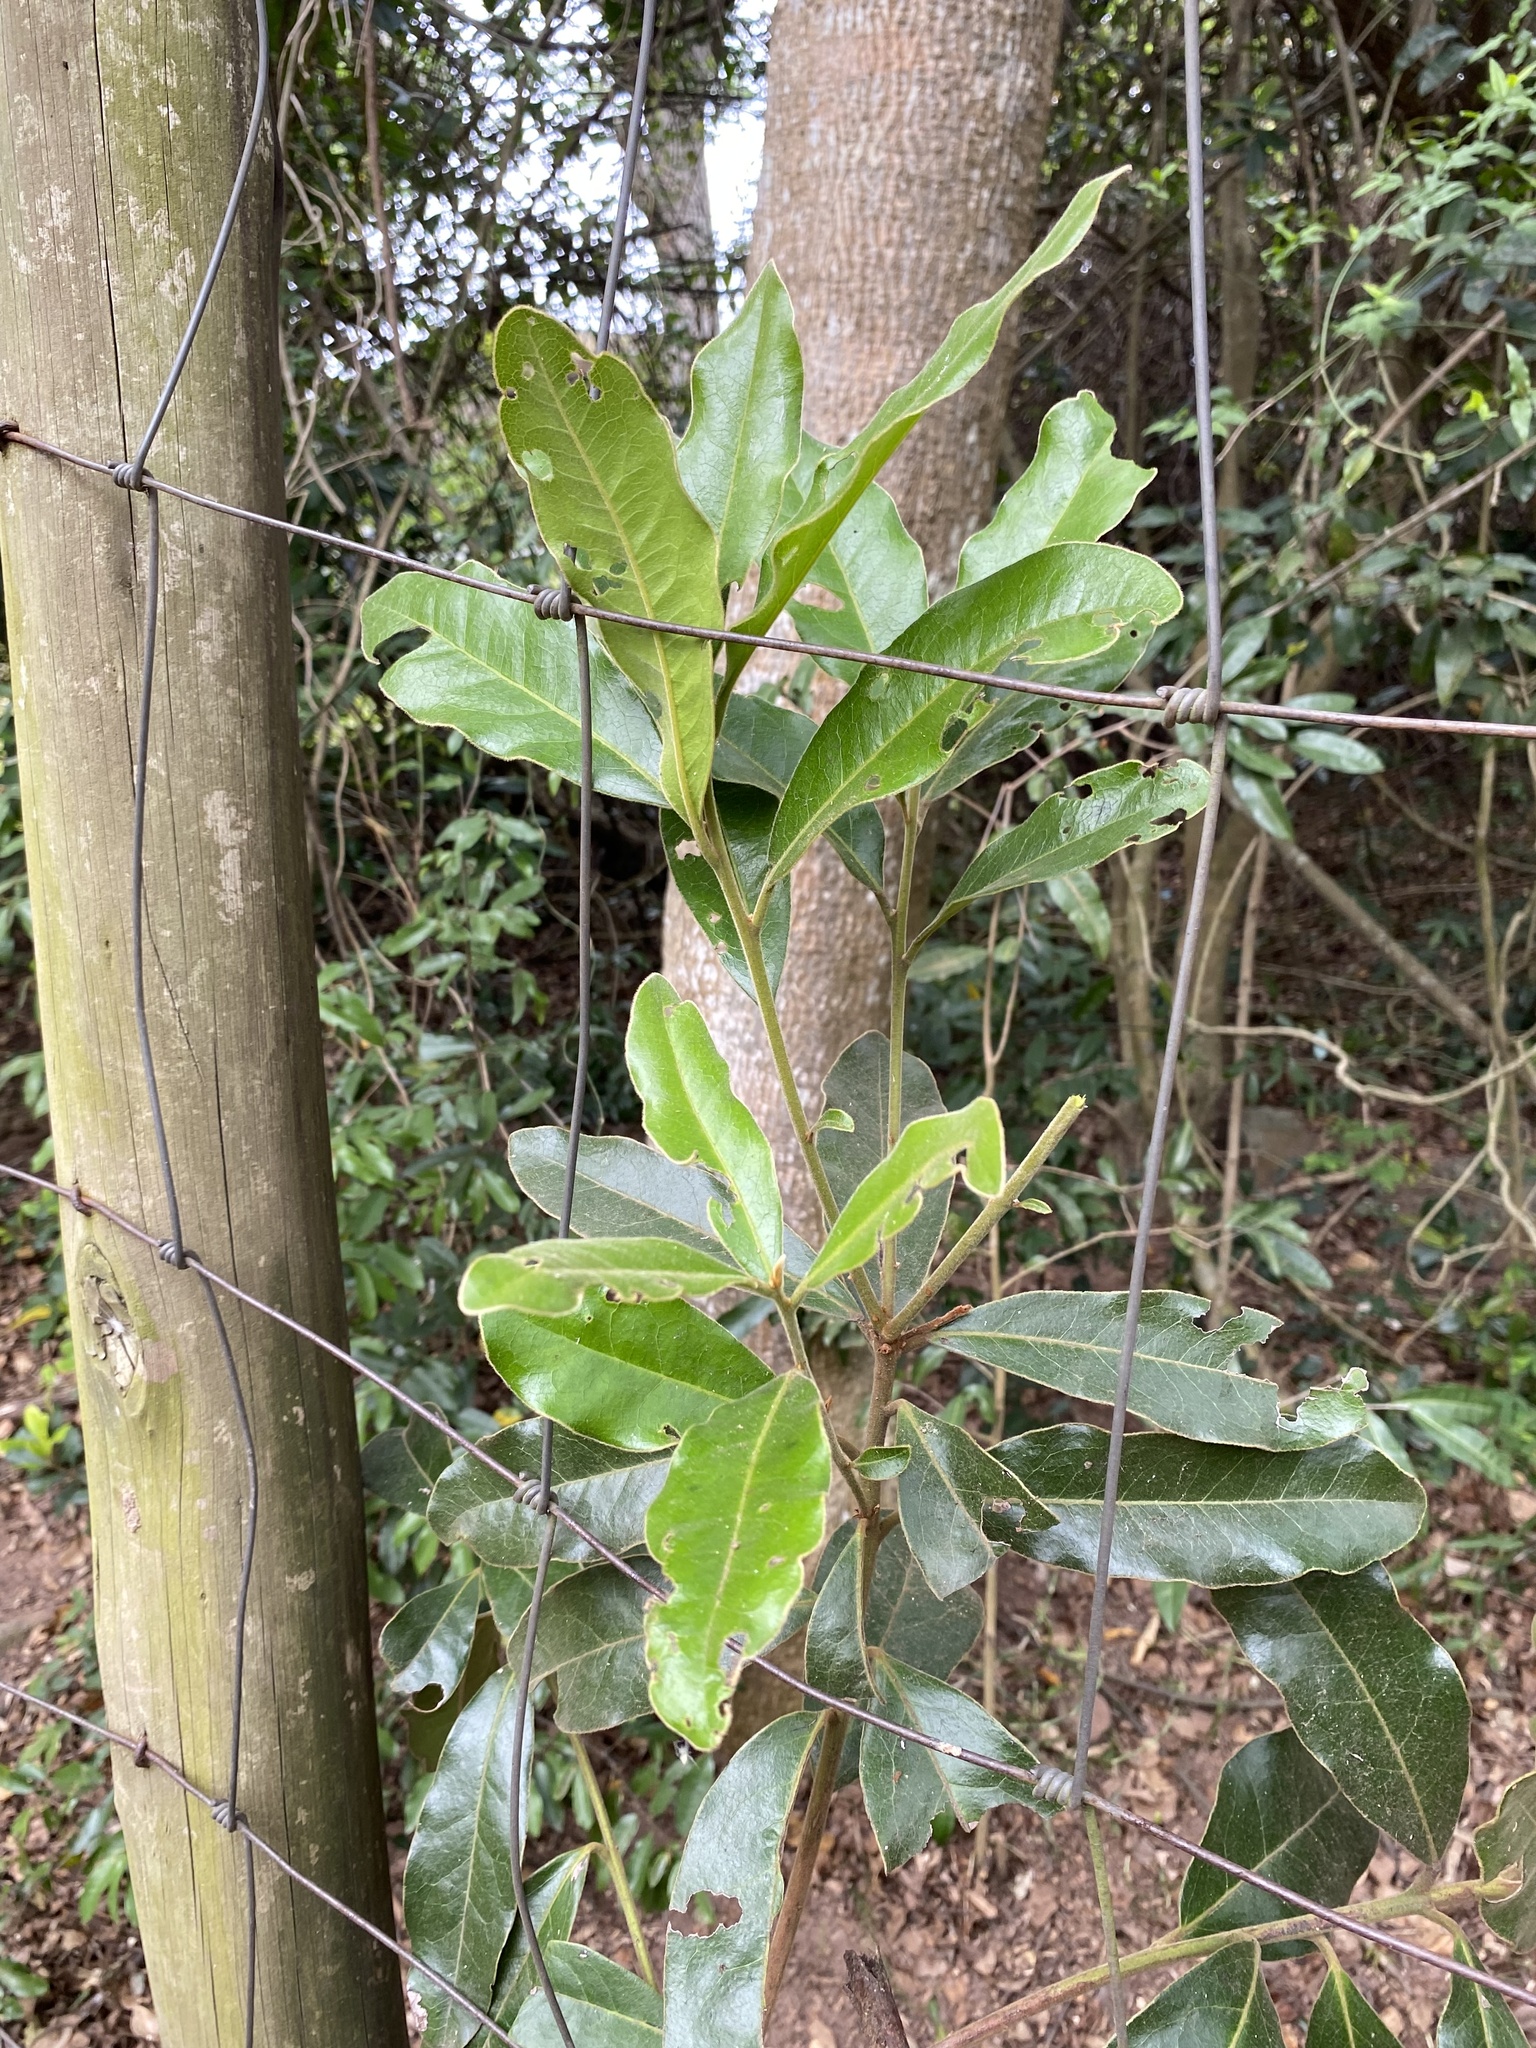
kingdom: Plantae
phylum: Tracheophyta
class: Magnoliopsida
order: Ericales
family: Ebenaceae
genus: Euclea
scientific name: Euclea natalensis
